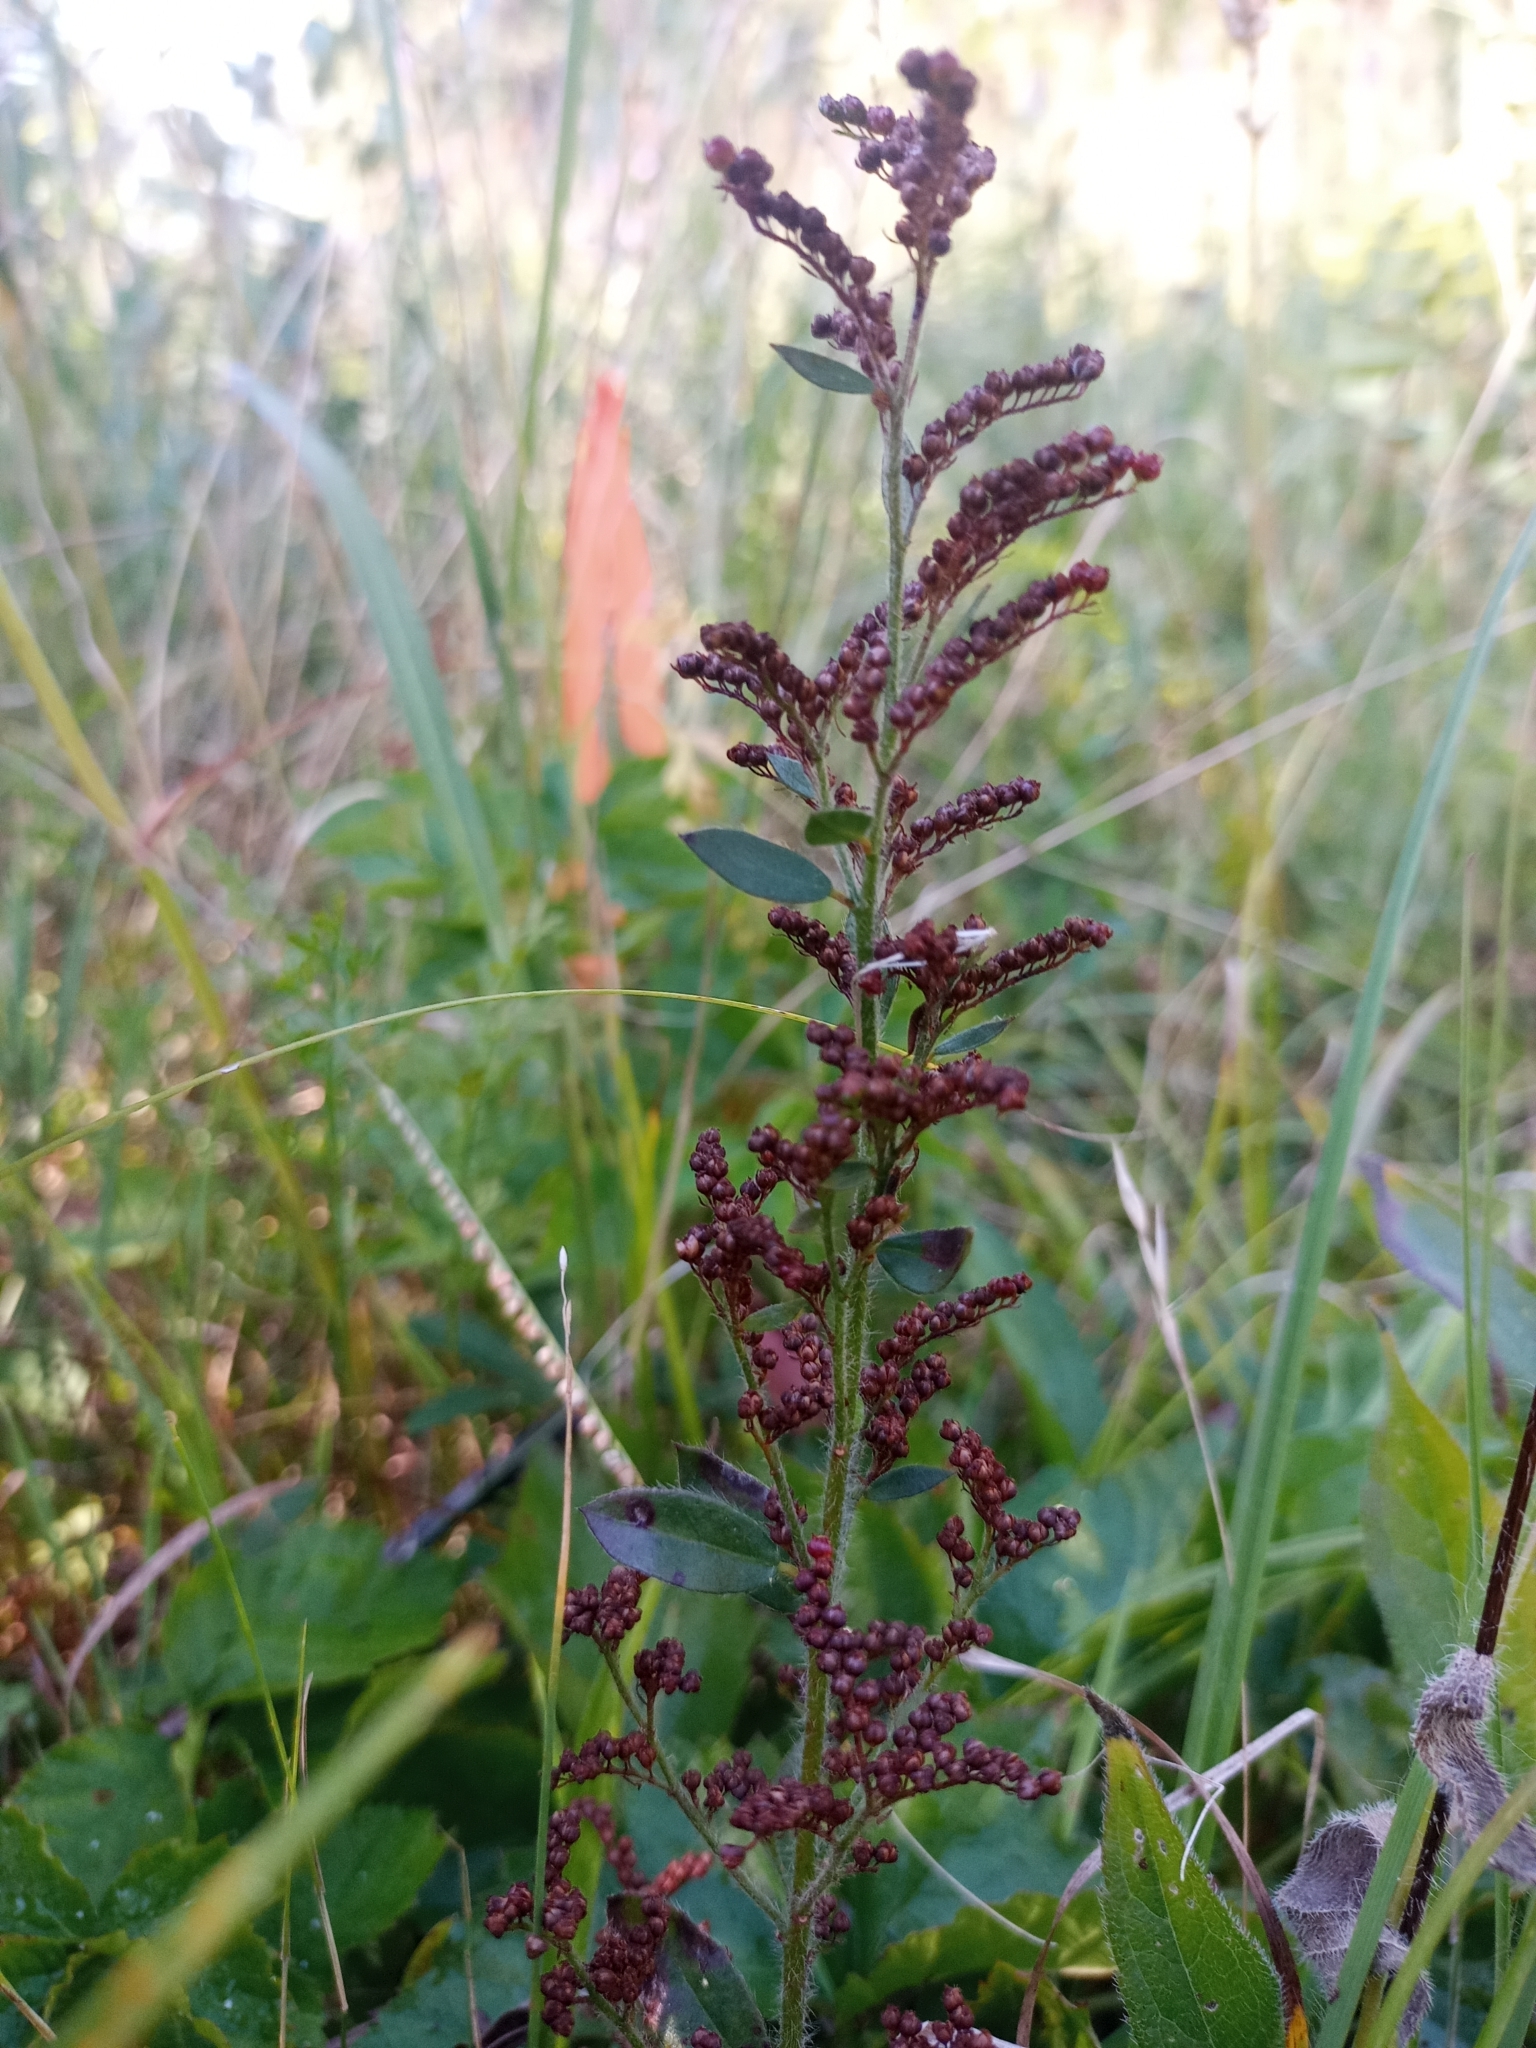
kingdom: Plantae
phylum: Tracheophyta
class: Magnoliopsida
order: Malvales
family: Cistaceae
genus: Lechea
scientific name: Lechea mucronata
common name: Hairy pinweed
